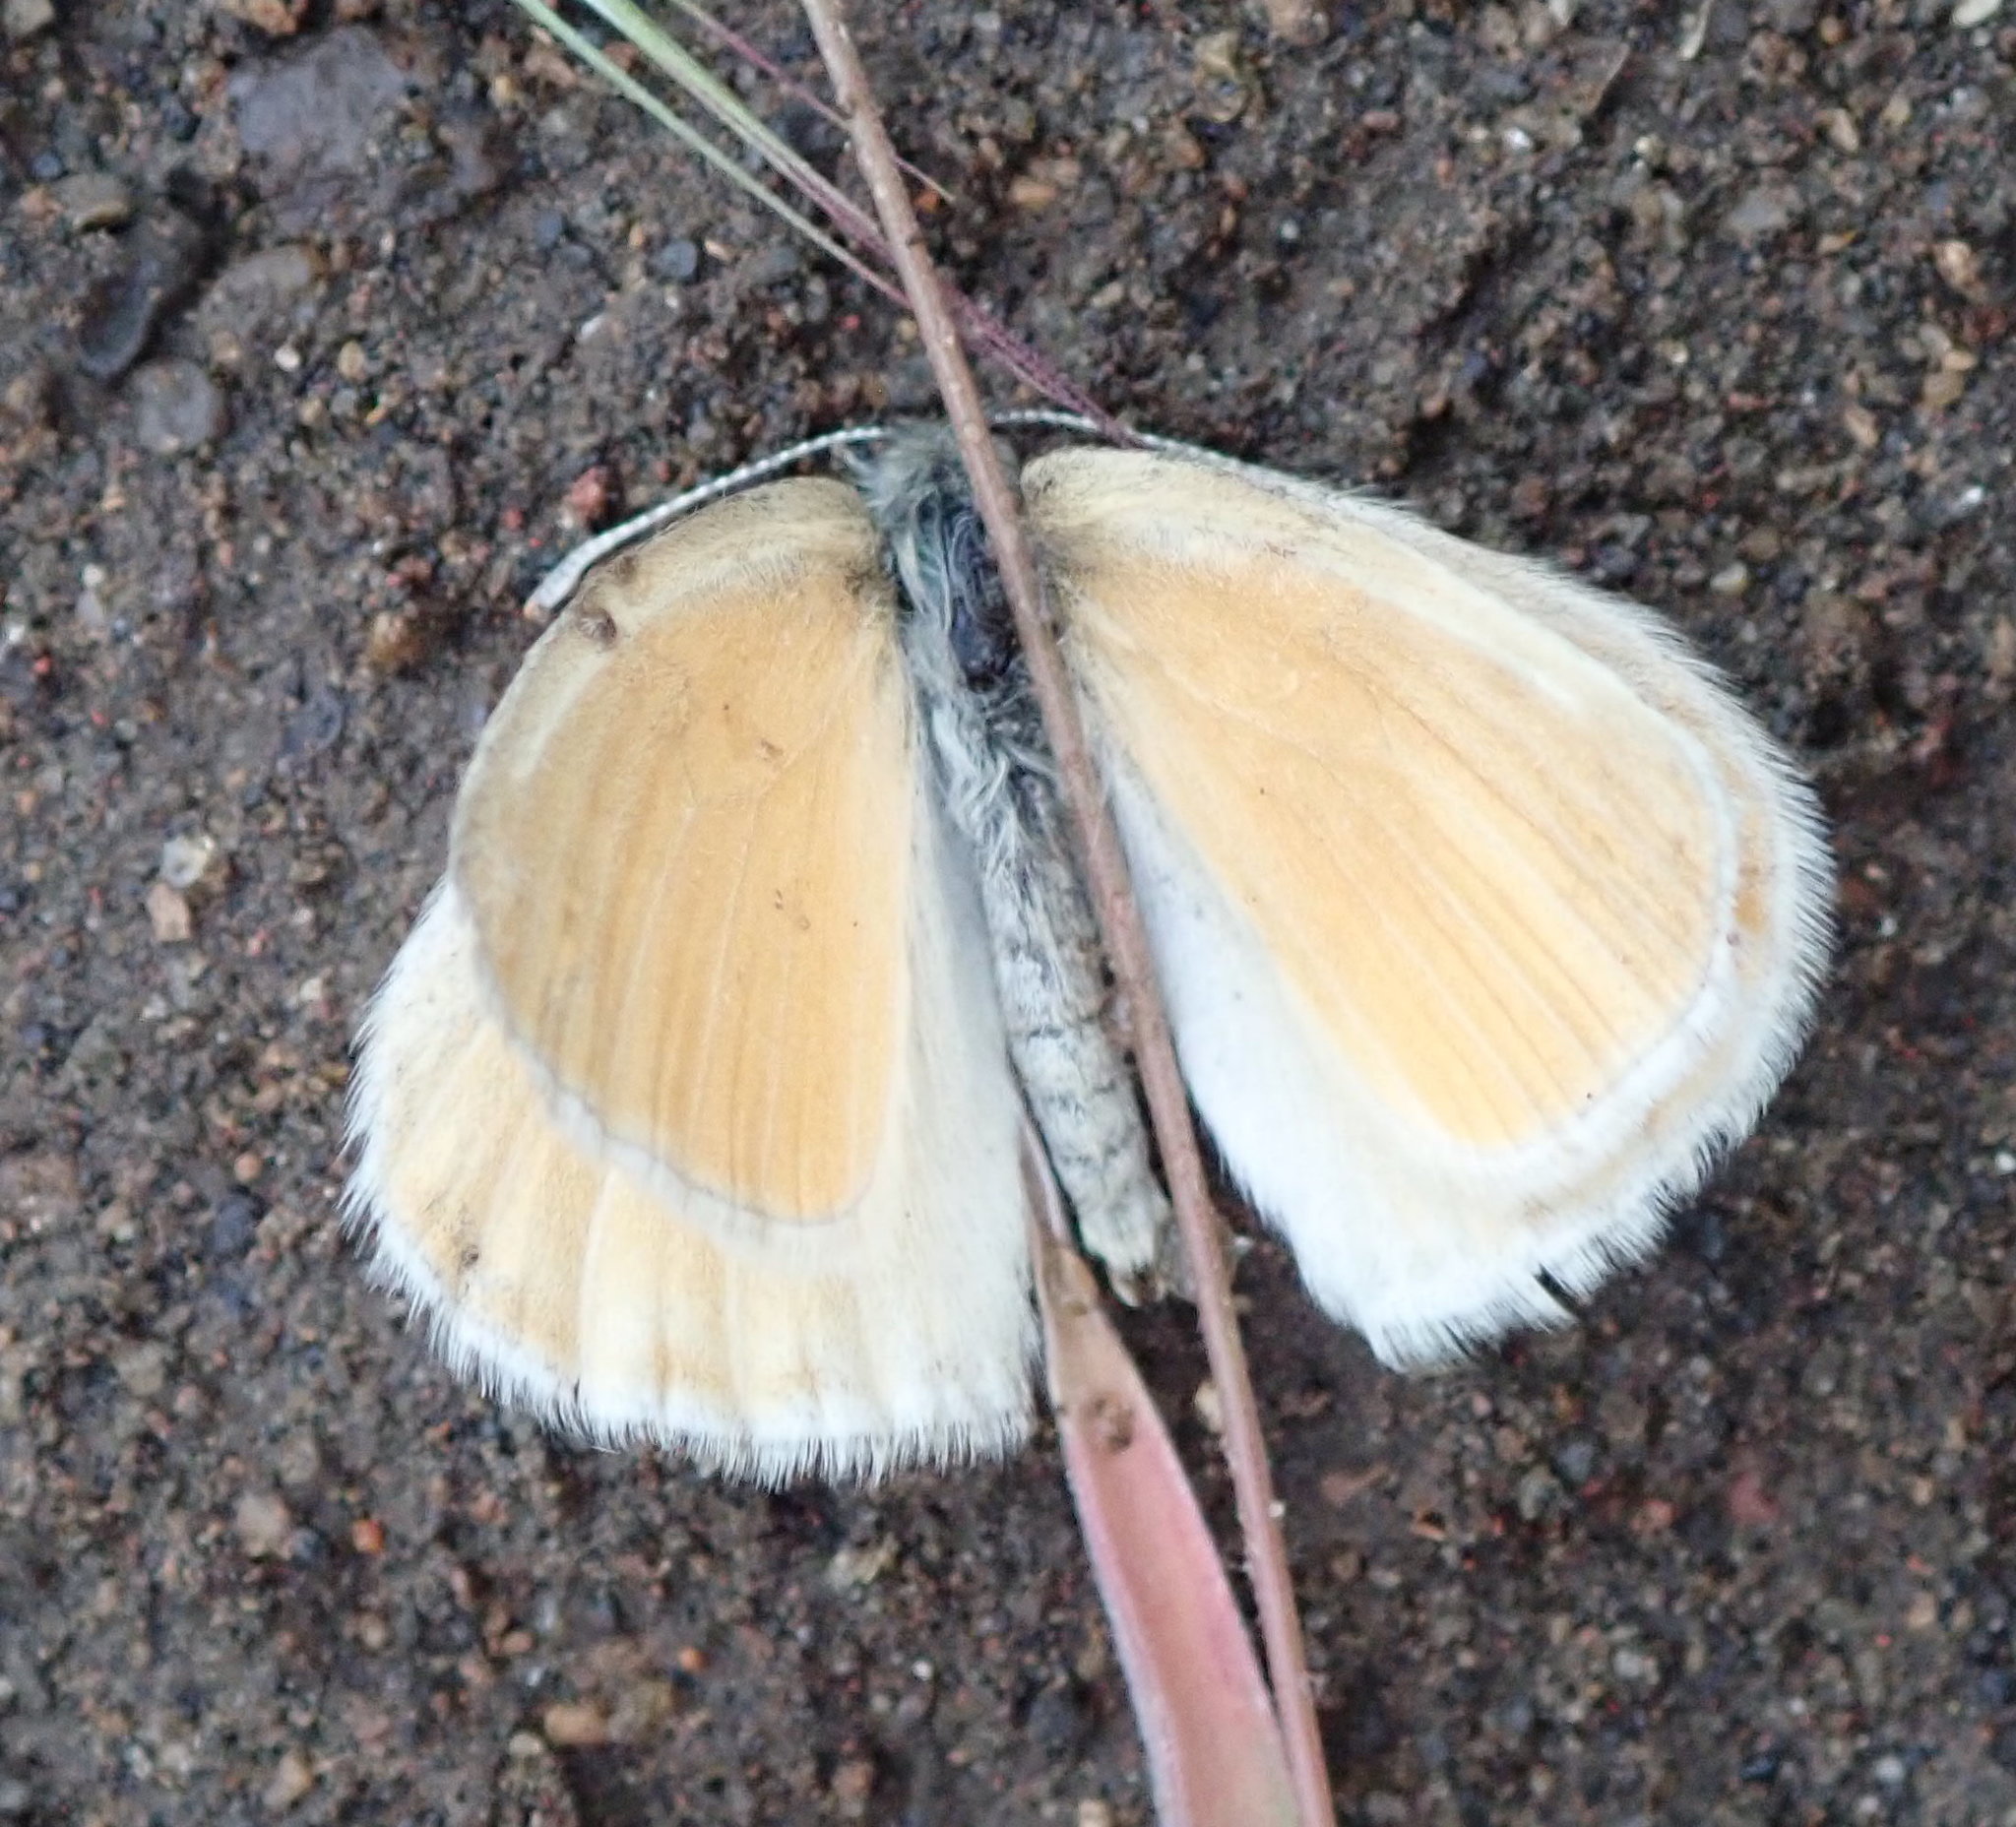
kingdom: Animalia
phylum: Arthropoda
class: Insecta
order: Lepidoptera
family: Nymphalidae
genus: Coenonympha
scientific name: Coenonympha california
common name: Common ringlet
